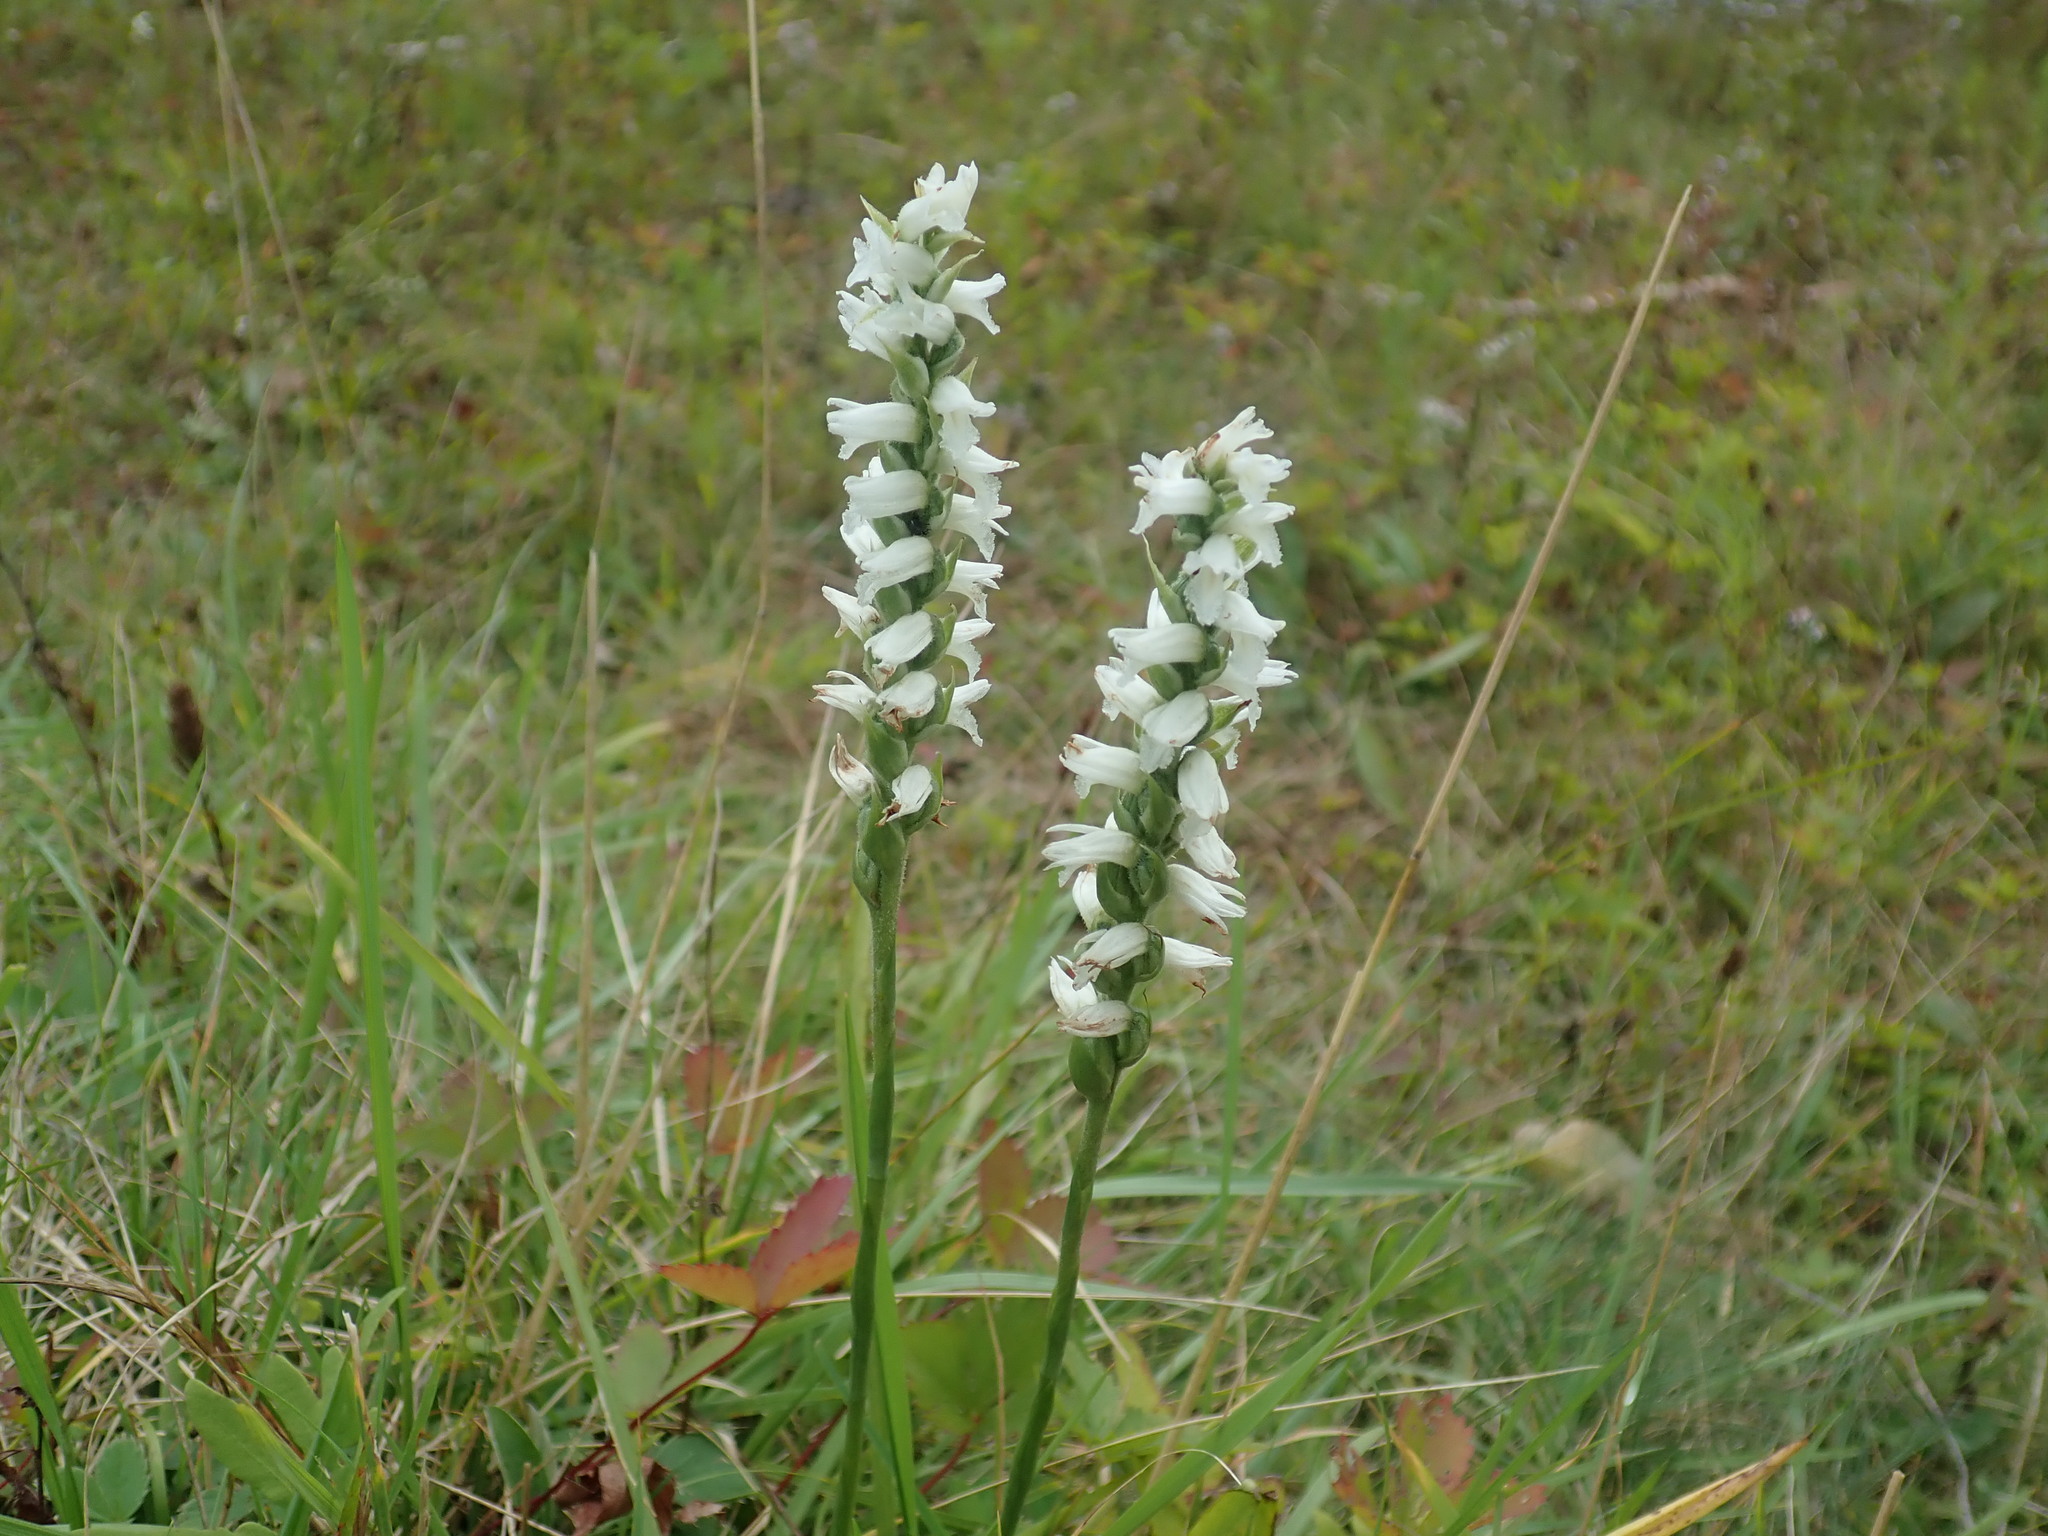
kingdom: Plantae
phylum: Tracheophyta
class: Liliopsida
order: Asparagales
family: Orchidaceae
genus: Spiranthes
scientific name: Spiranthes incurva
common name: Sphinx ladies'-tresses
